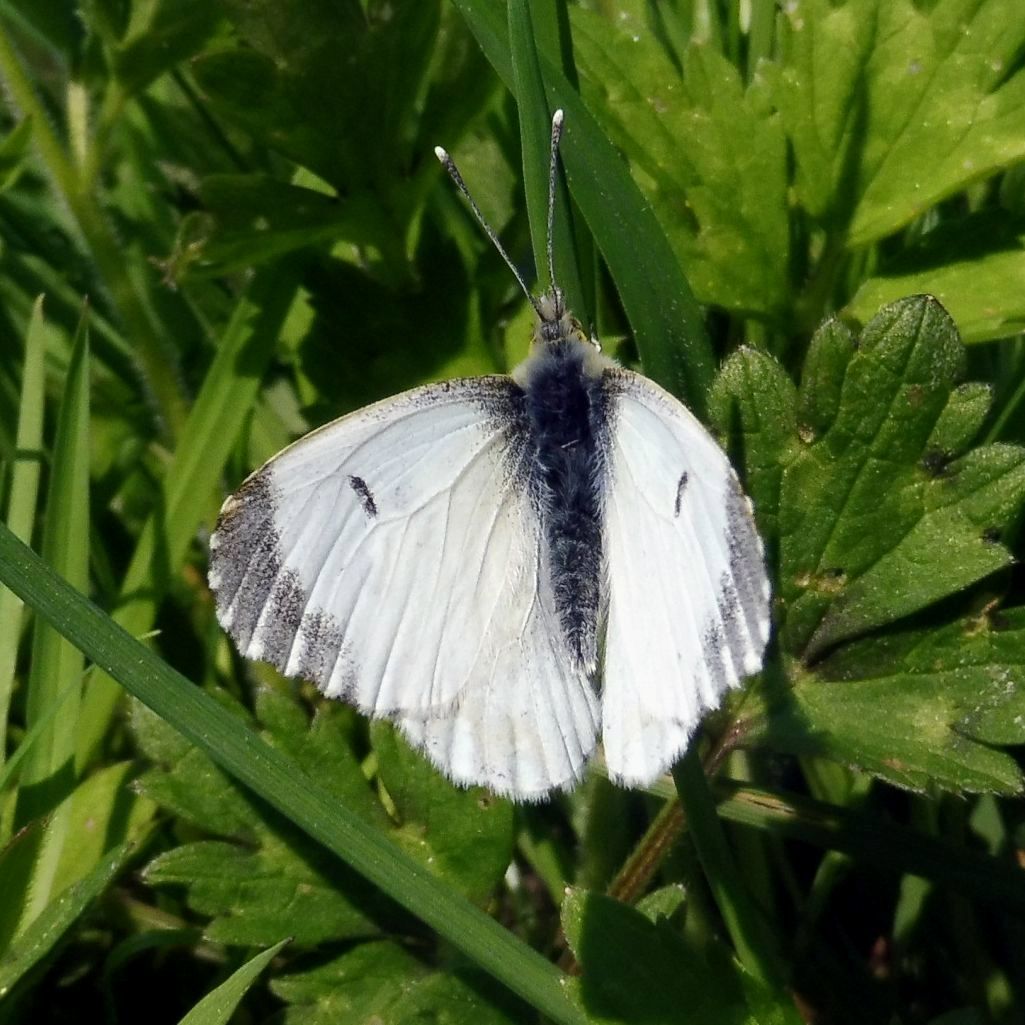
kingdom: Animalia
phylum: Arthropoda
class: Insecta
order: Lepidoptera
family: Pieridae
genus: Anthocharis
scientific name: Anthocharis cardamines
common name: Orange-tip
